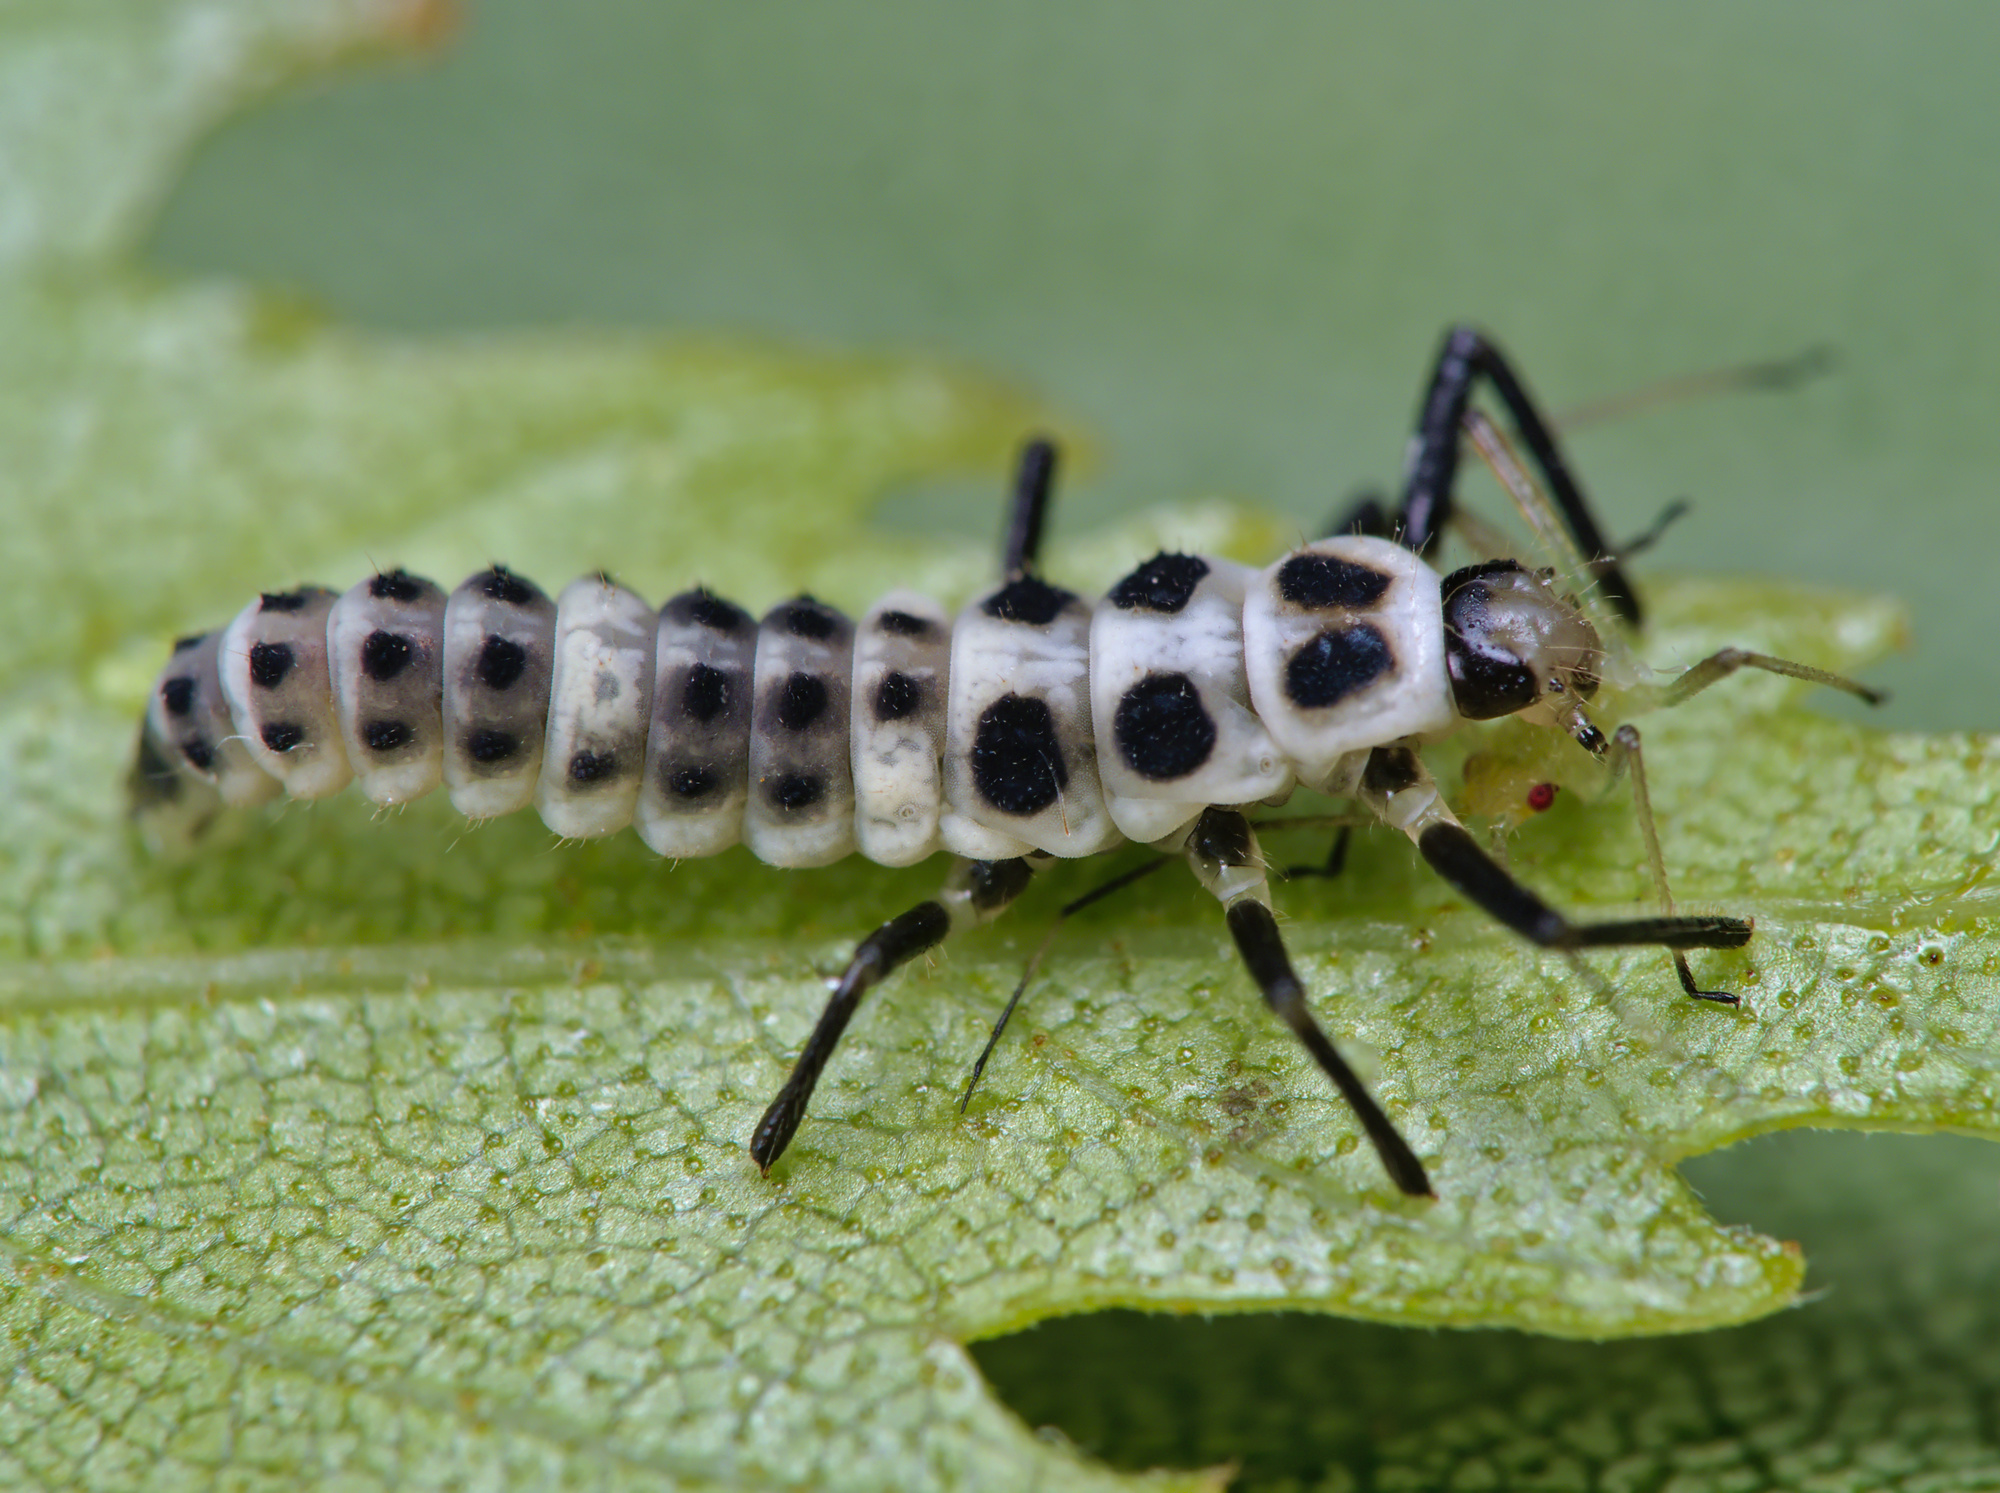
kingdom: Animalia
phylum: Arthropoda
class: Insecta
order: Coleoptera
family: Coccinellidae
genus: Calvia
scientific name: Calvia decemguttata
